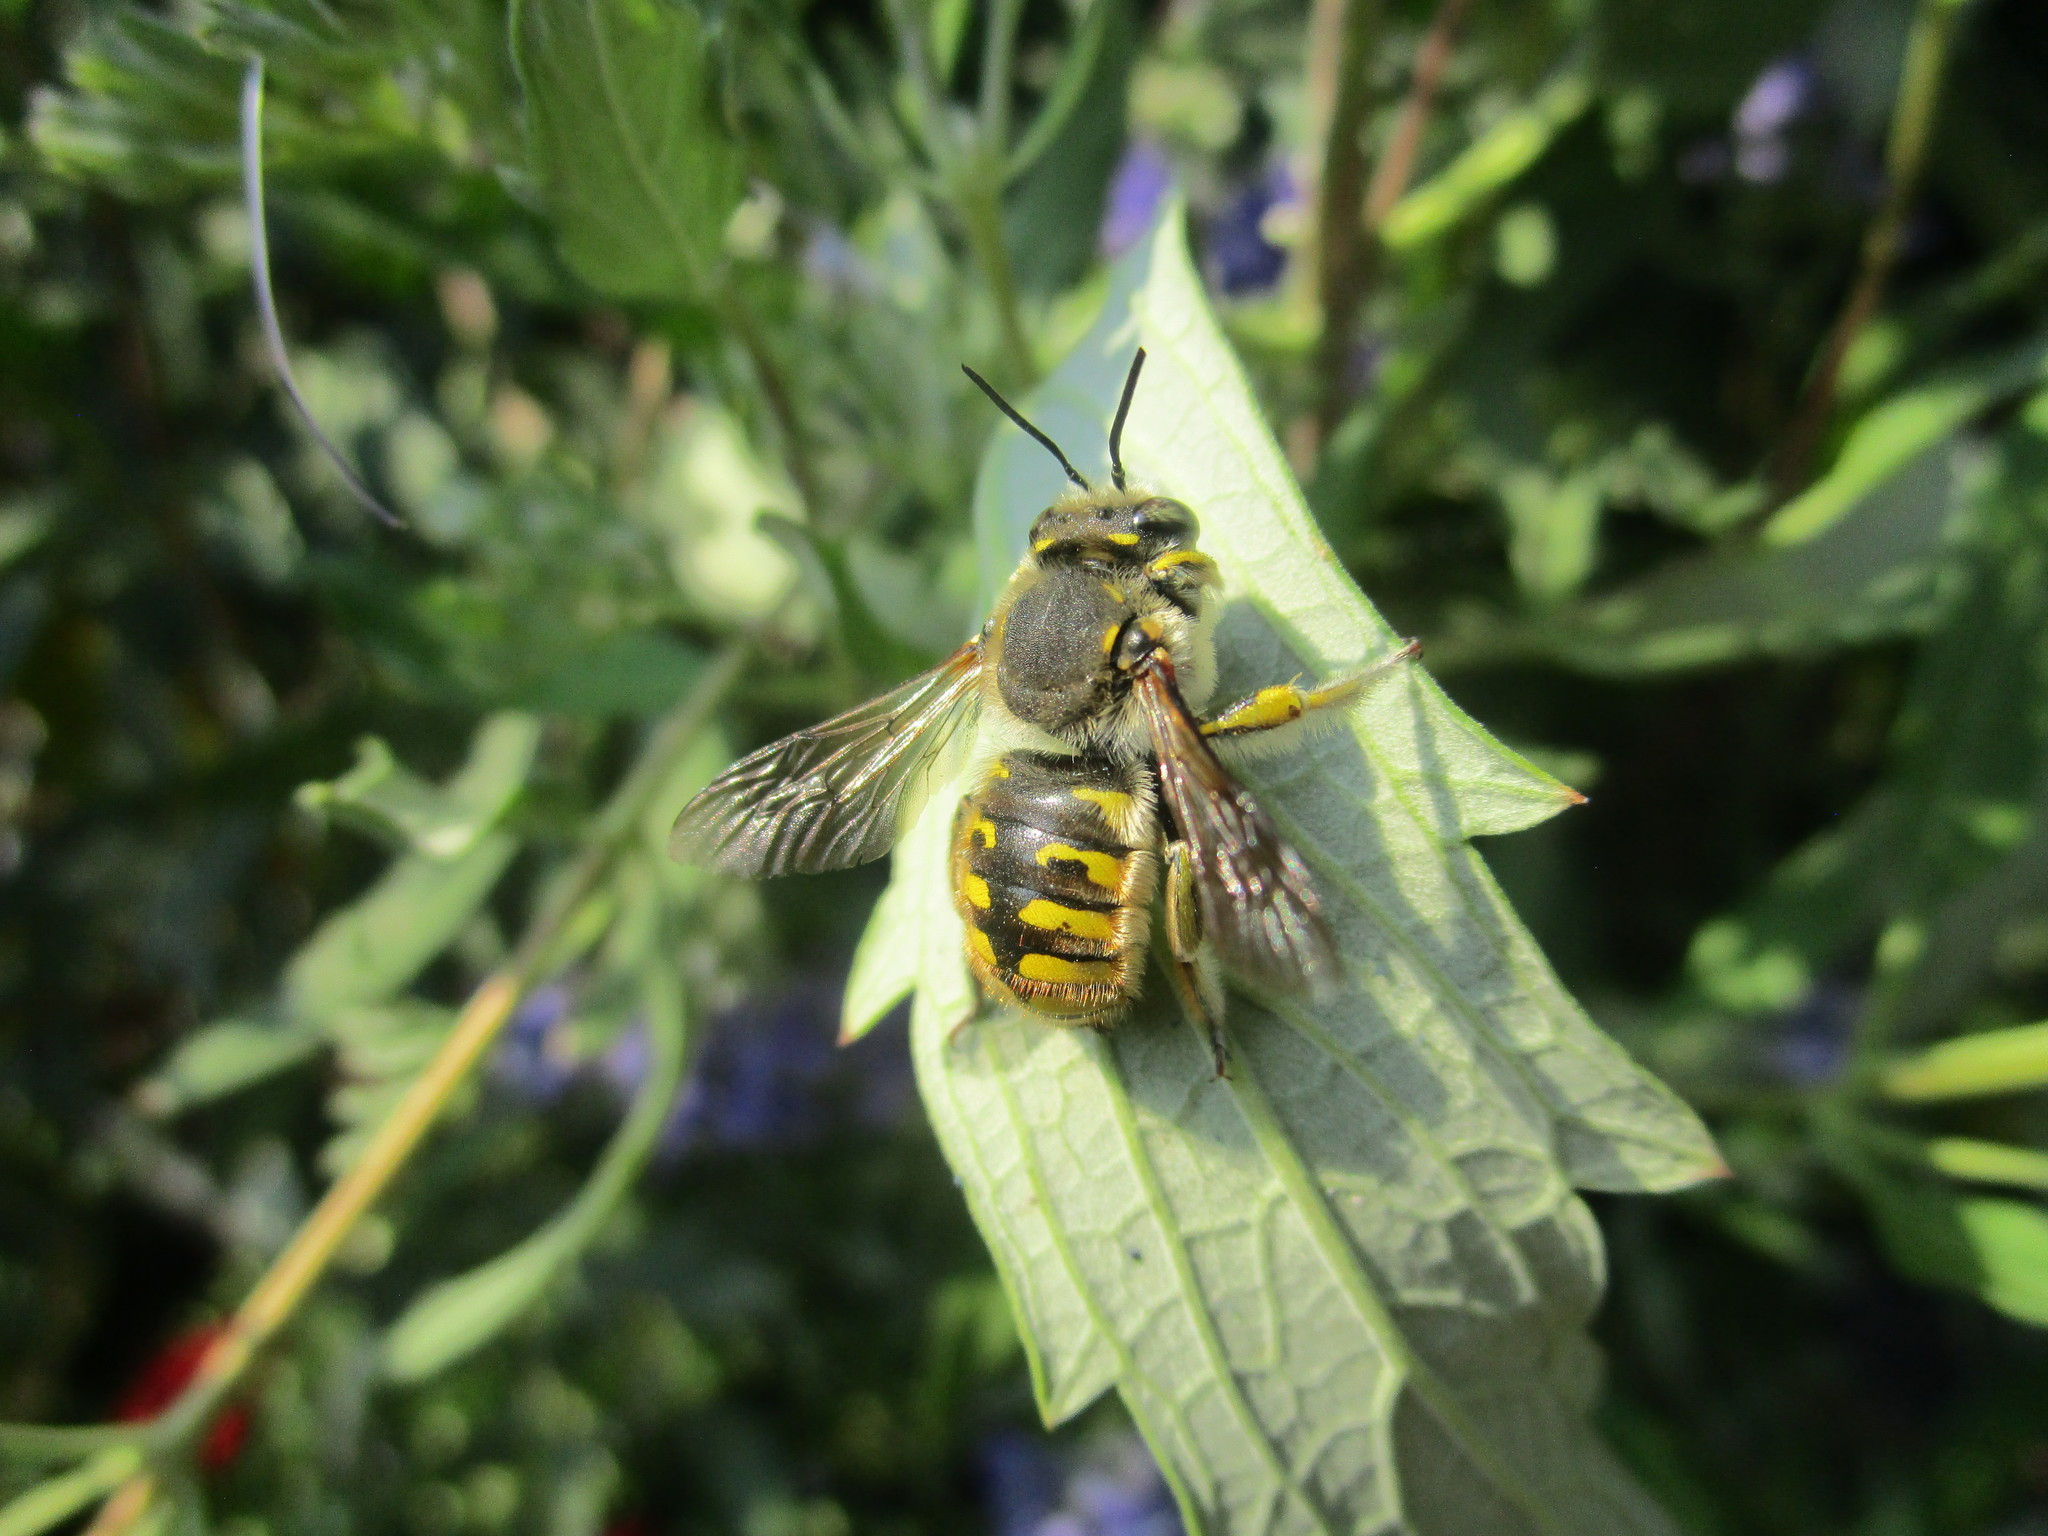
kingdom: Animalia
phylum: Arthropoda
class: Insecta
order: Hymenoptera
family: Megachilidae
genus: Anthidium
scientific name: Anthidium manicatum
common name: Wool carder bee
